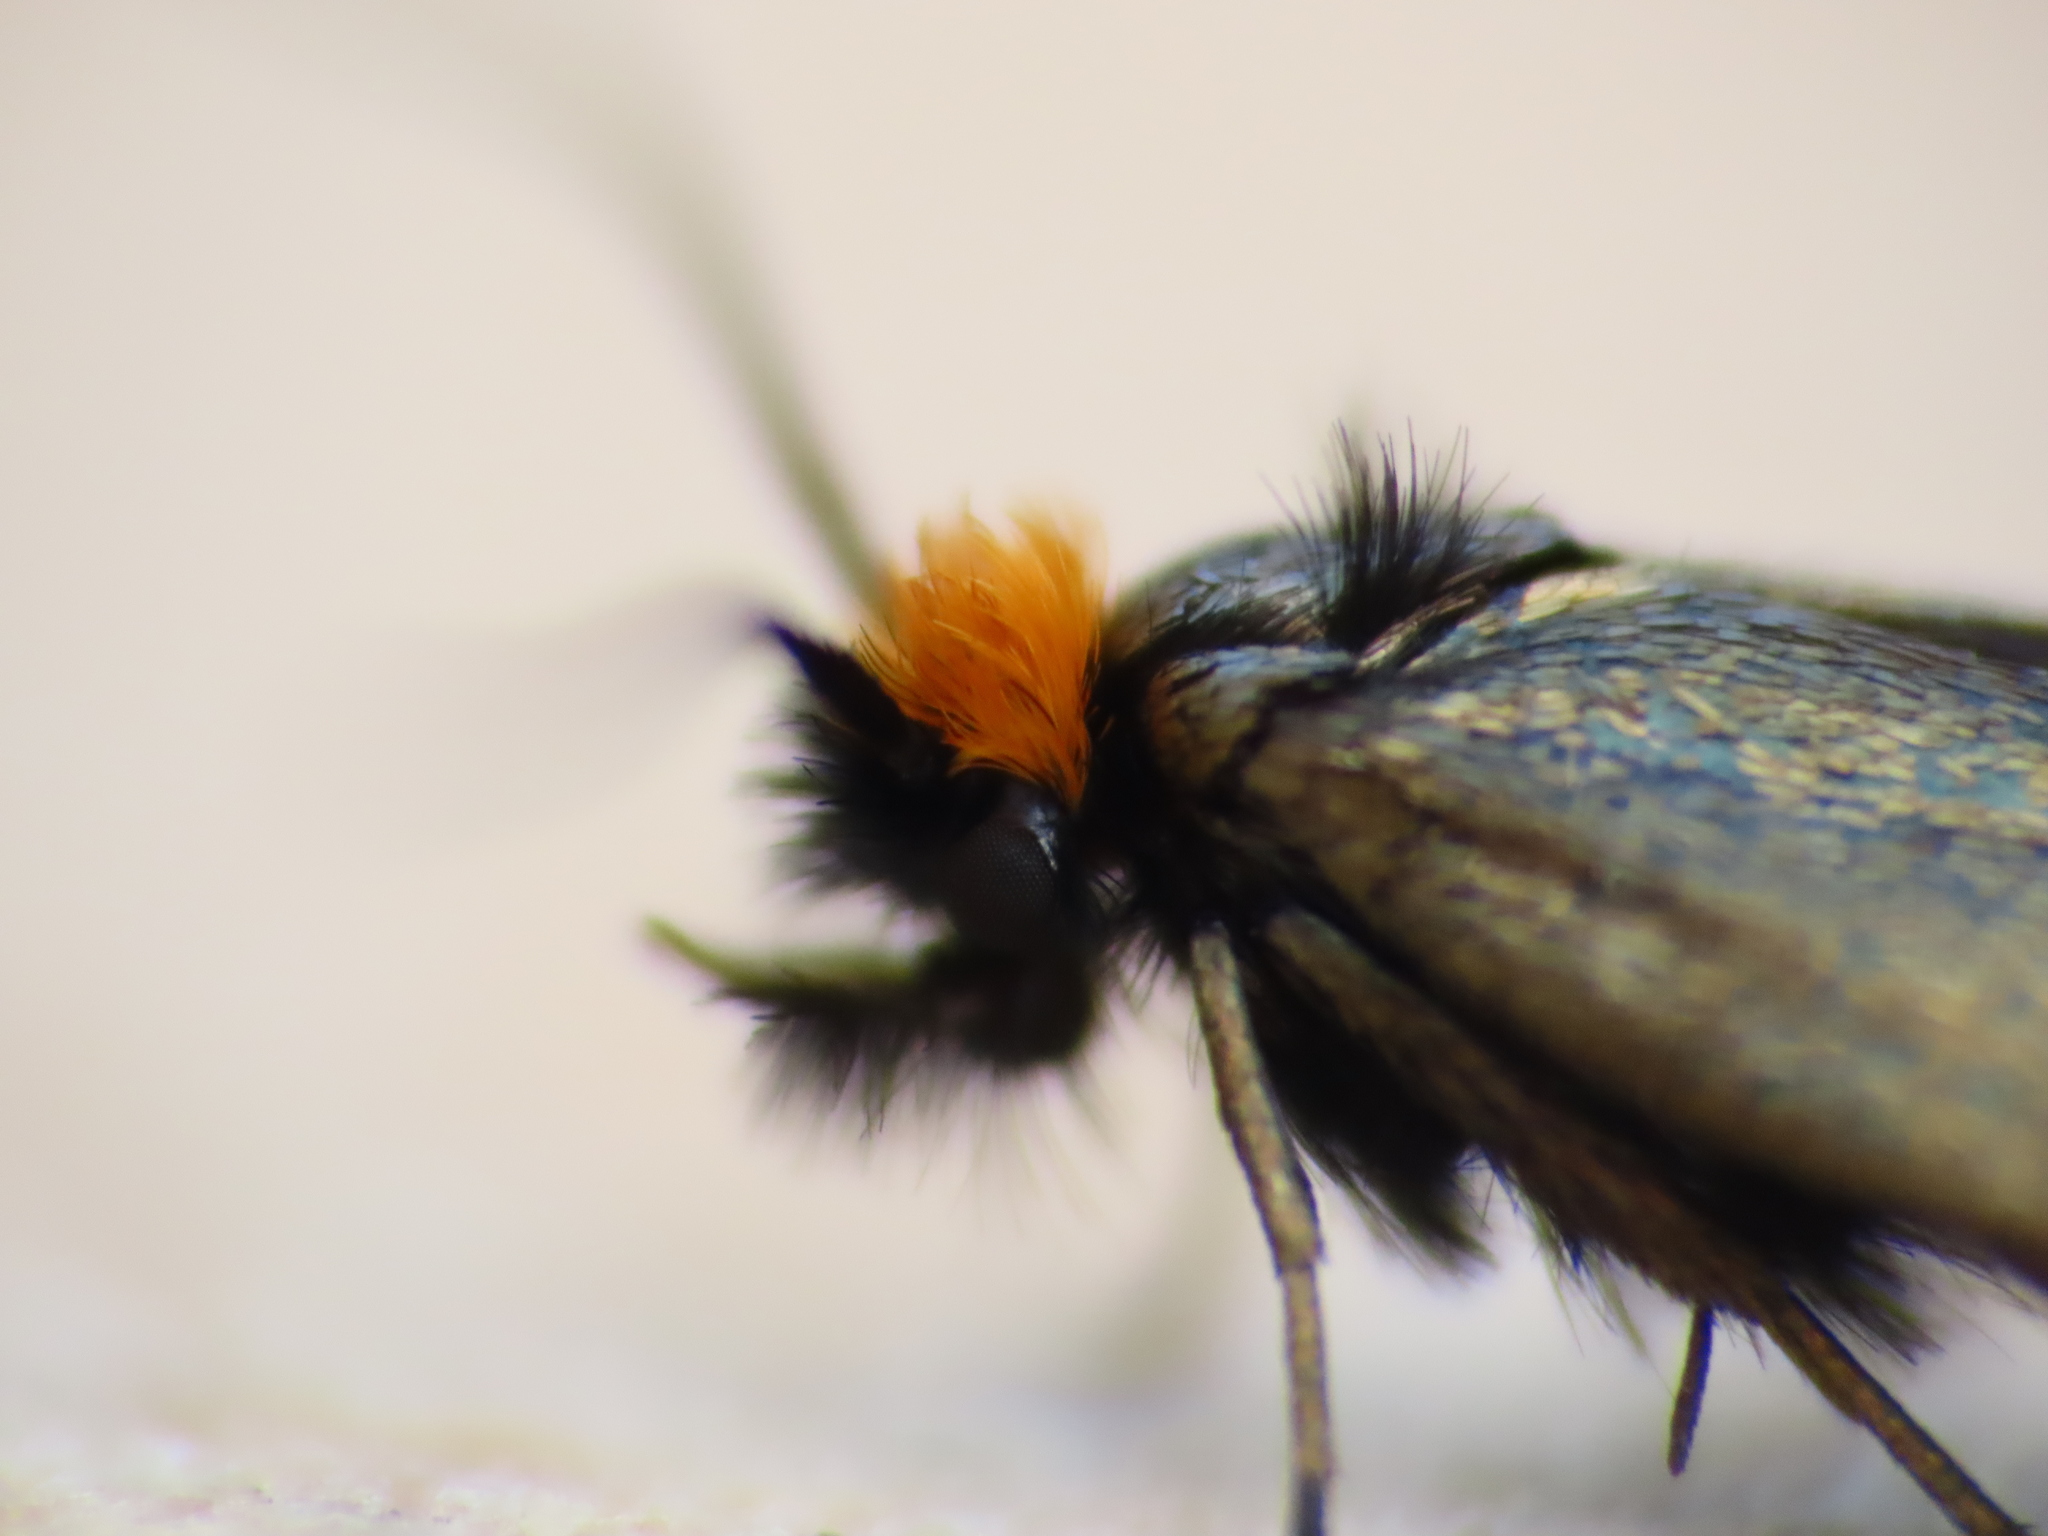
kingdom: Animalia
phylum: Arthropoda
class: Insecta
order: Lepidoptera
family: Adelidae
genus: Cauchas
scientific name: Cauchas rufifrontella
